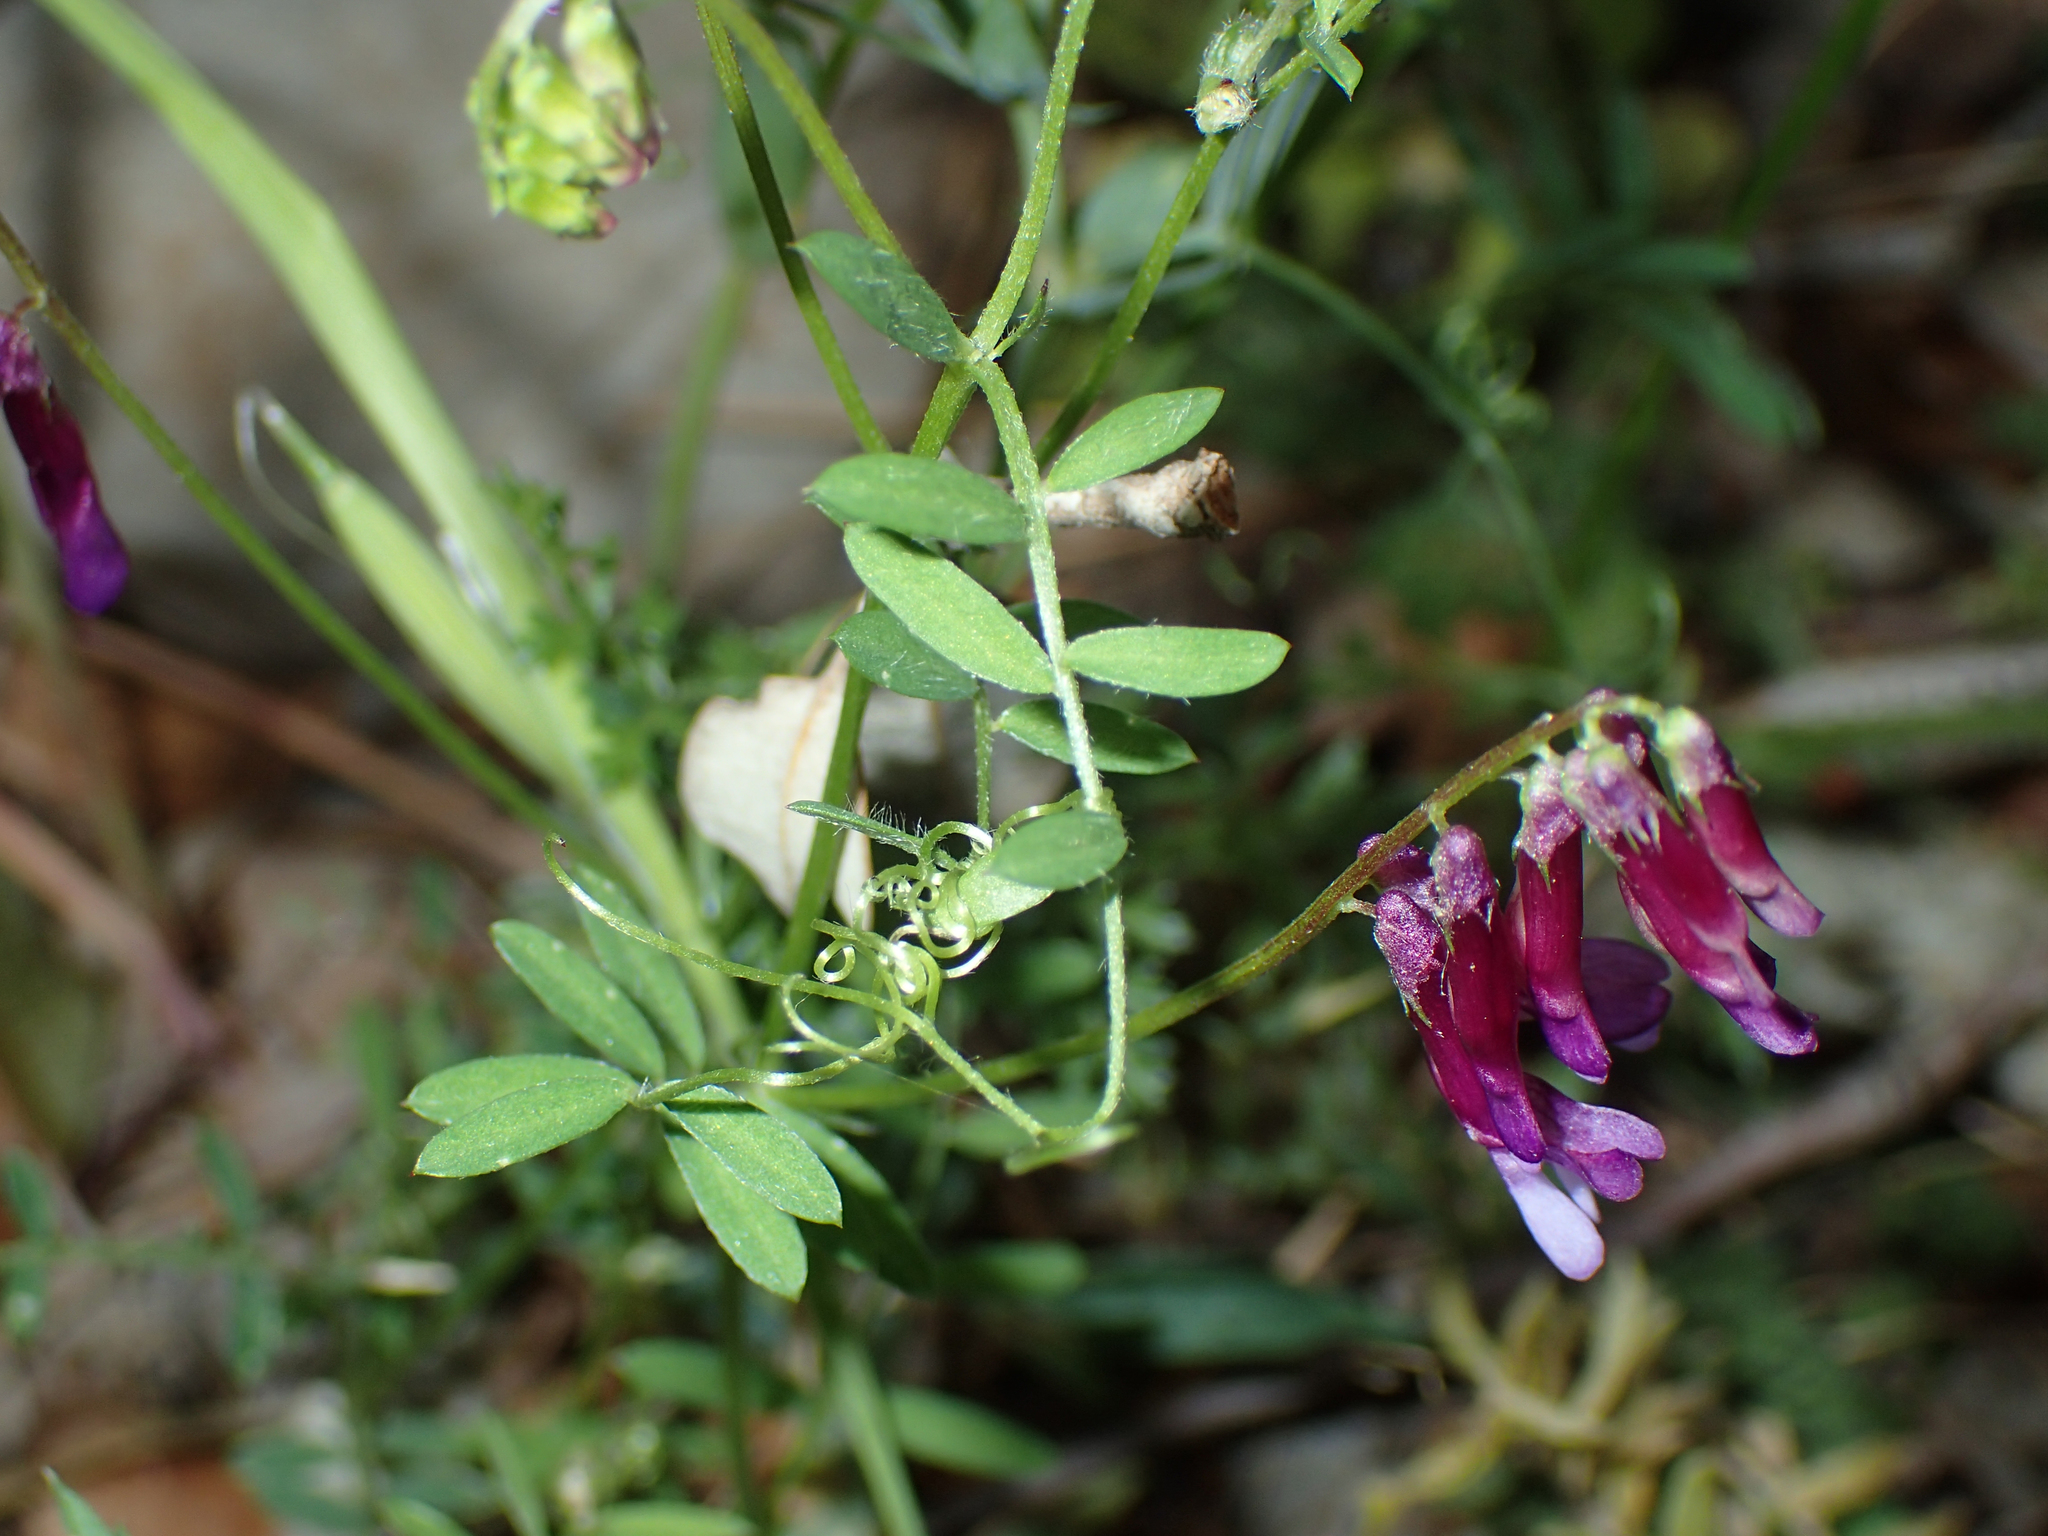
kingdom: Plantae
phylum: Tracheophyta
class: Magnoliopsida
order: Fabales
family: Fabaceae
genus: Vicia
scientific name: Vicia eriocarpa
